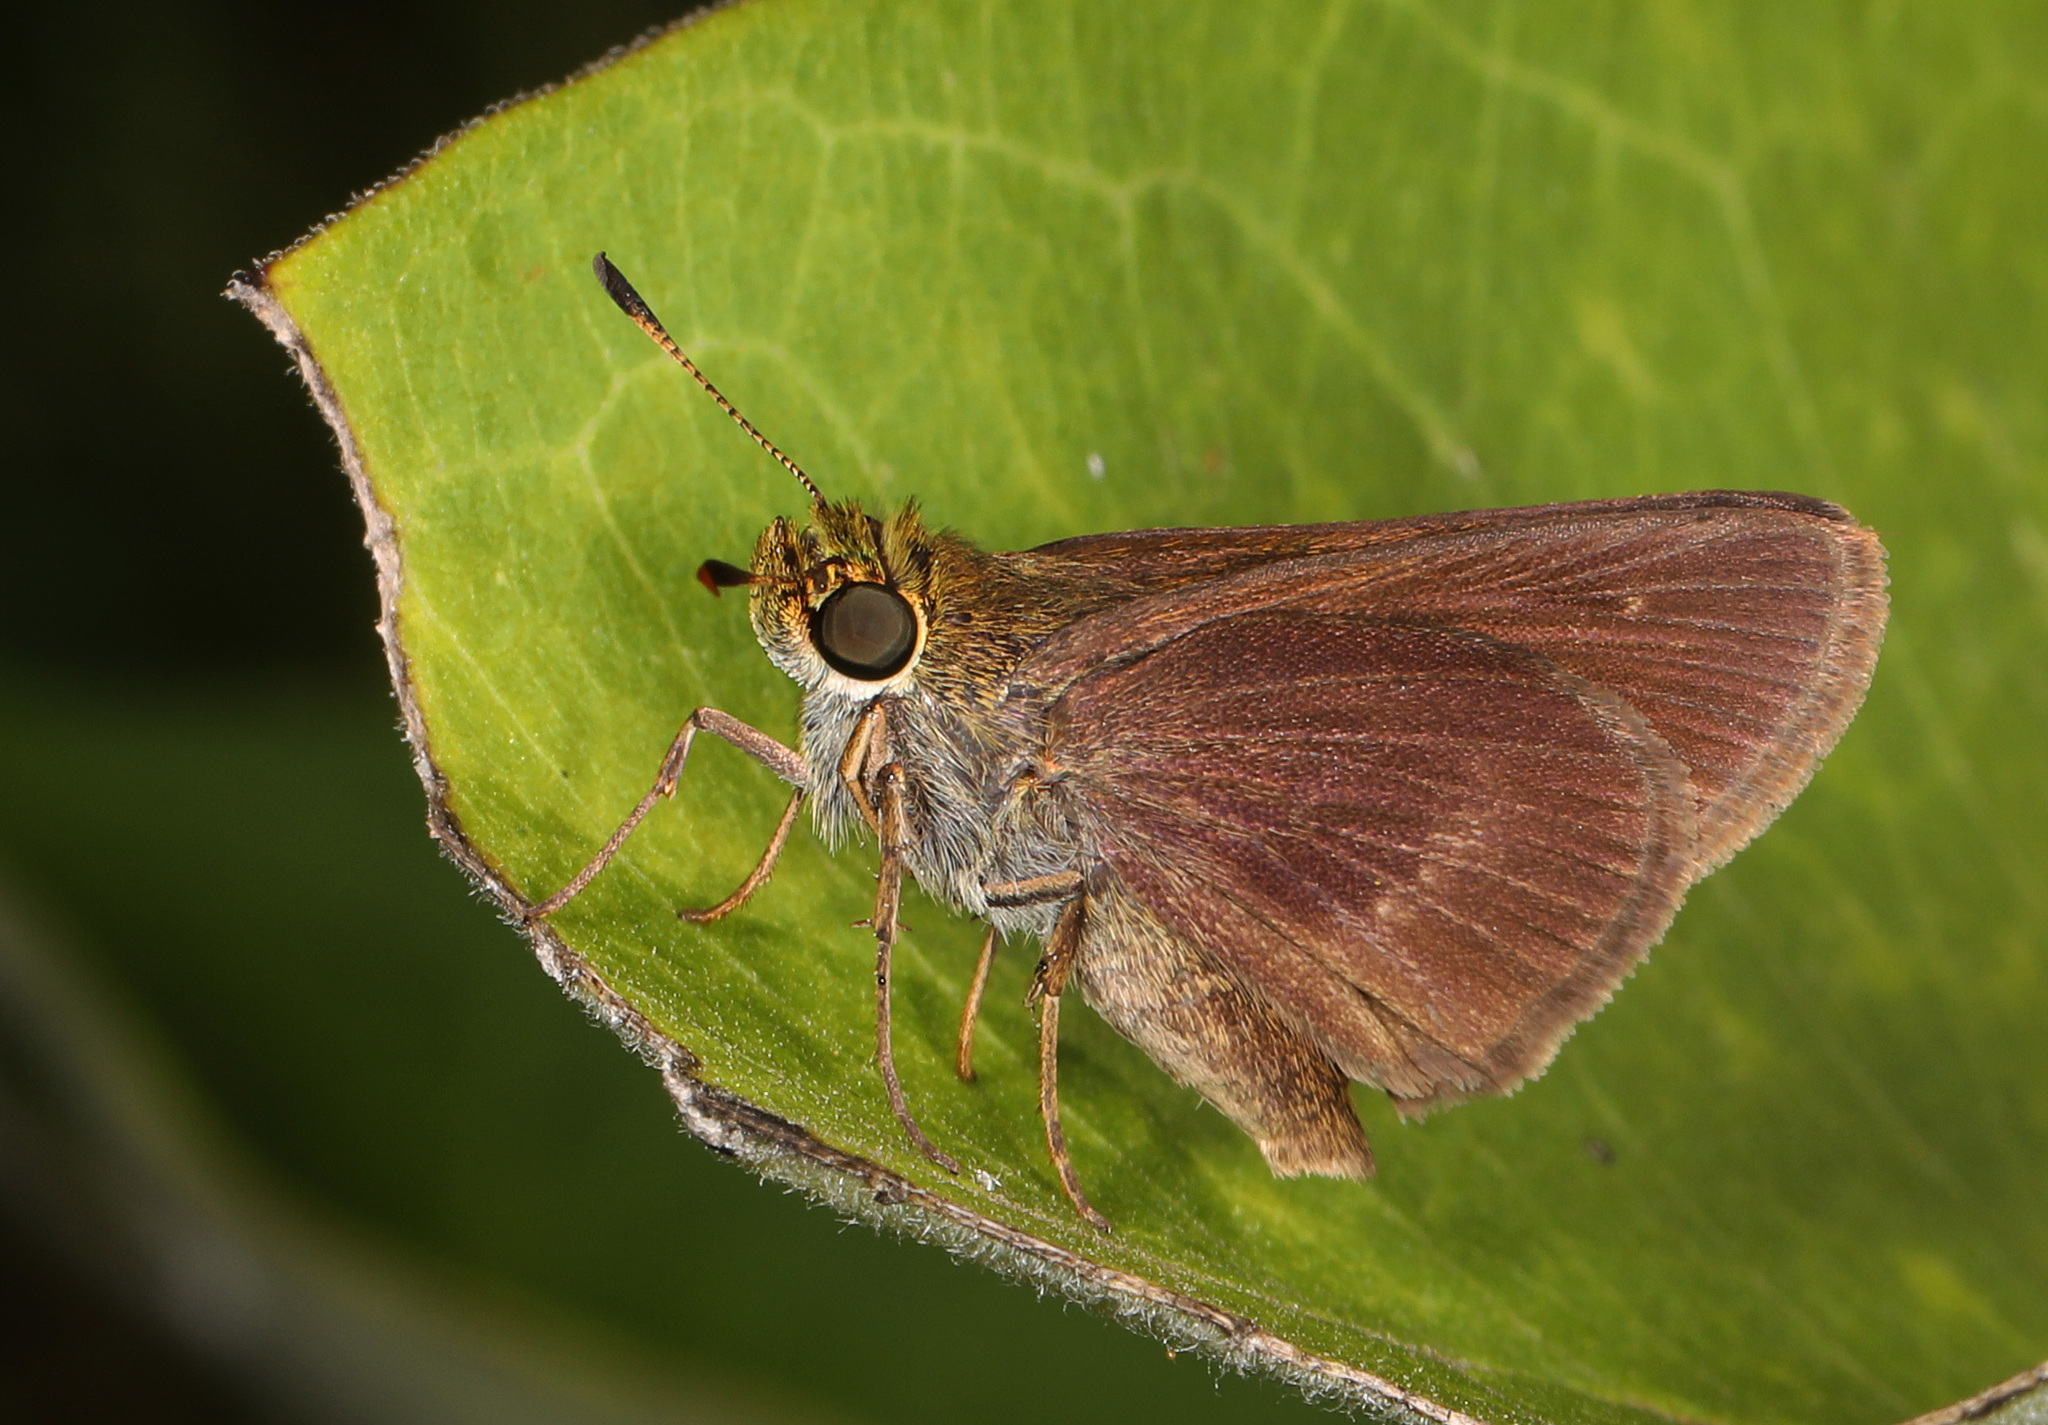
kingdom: Animalia
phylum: Arthropoda
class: Insecta
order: Lepidoptera
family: Hesperiidae
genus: Euphyes
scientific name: Euphyes vestris
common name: Dun skipper
